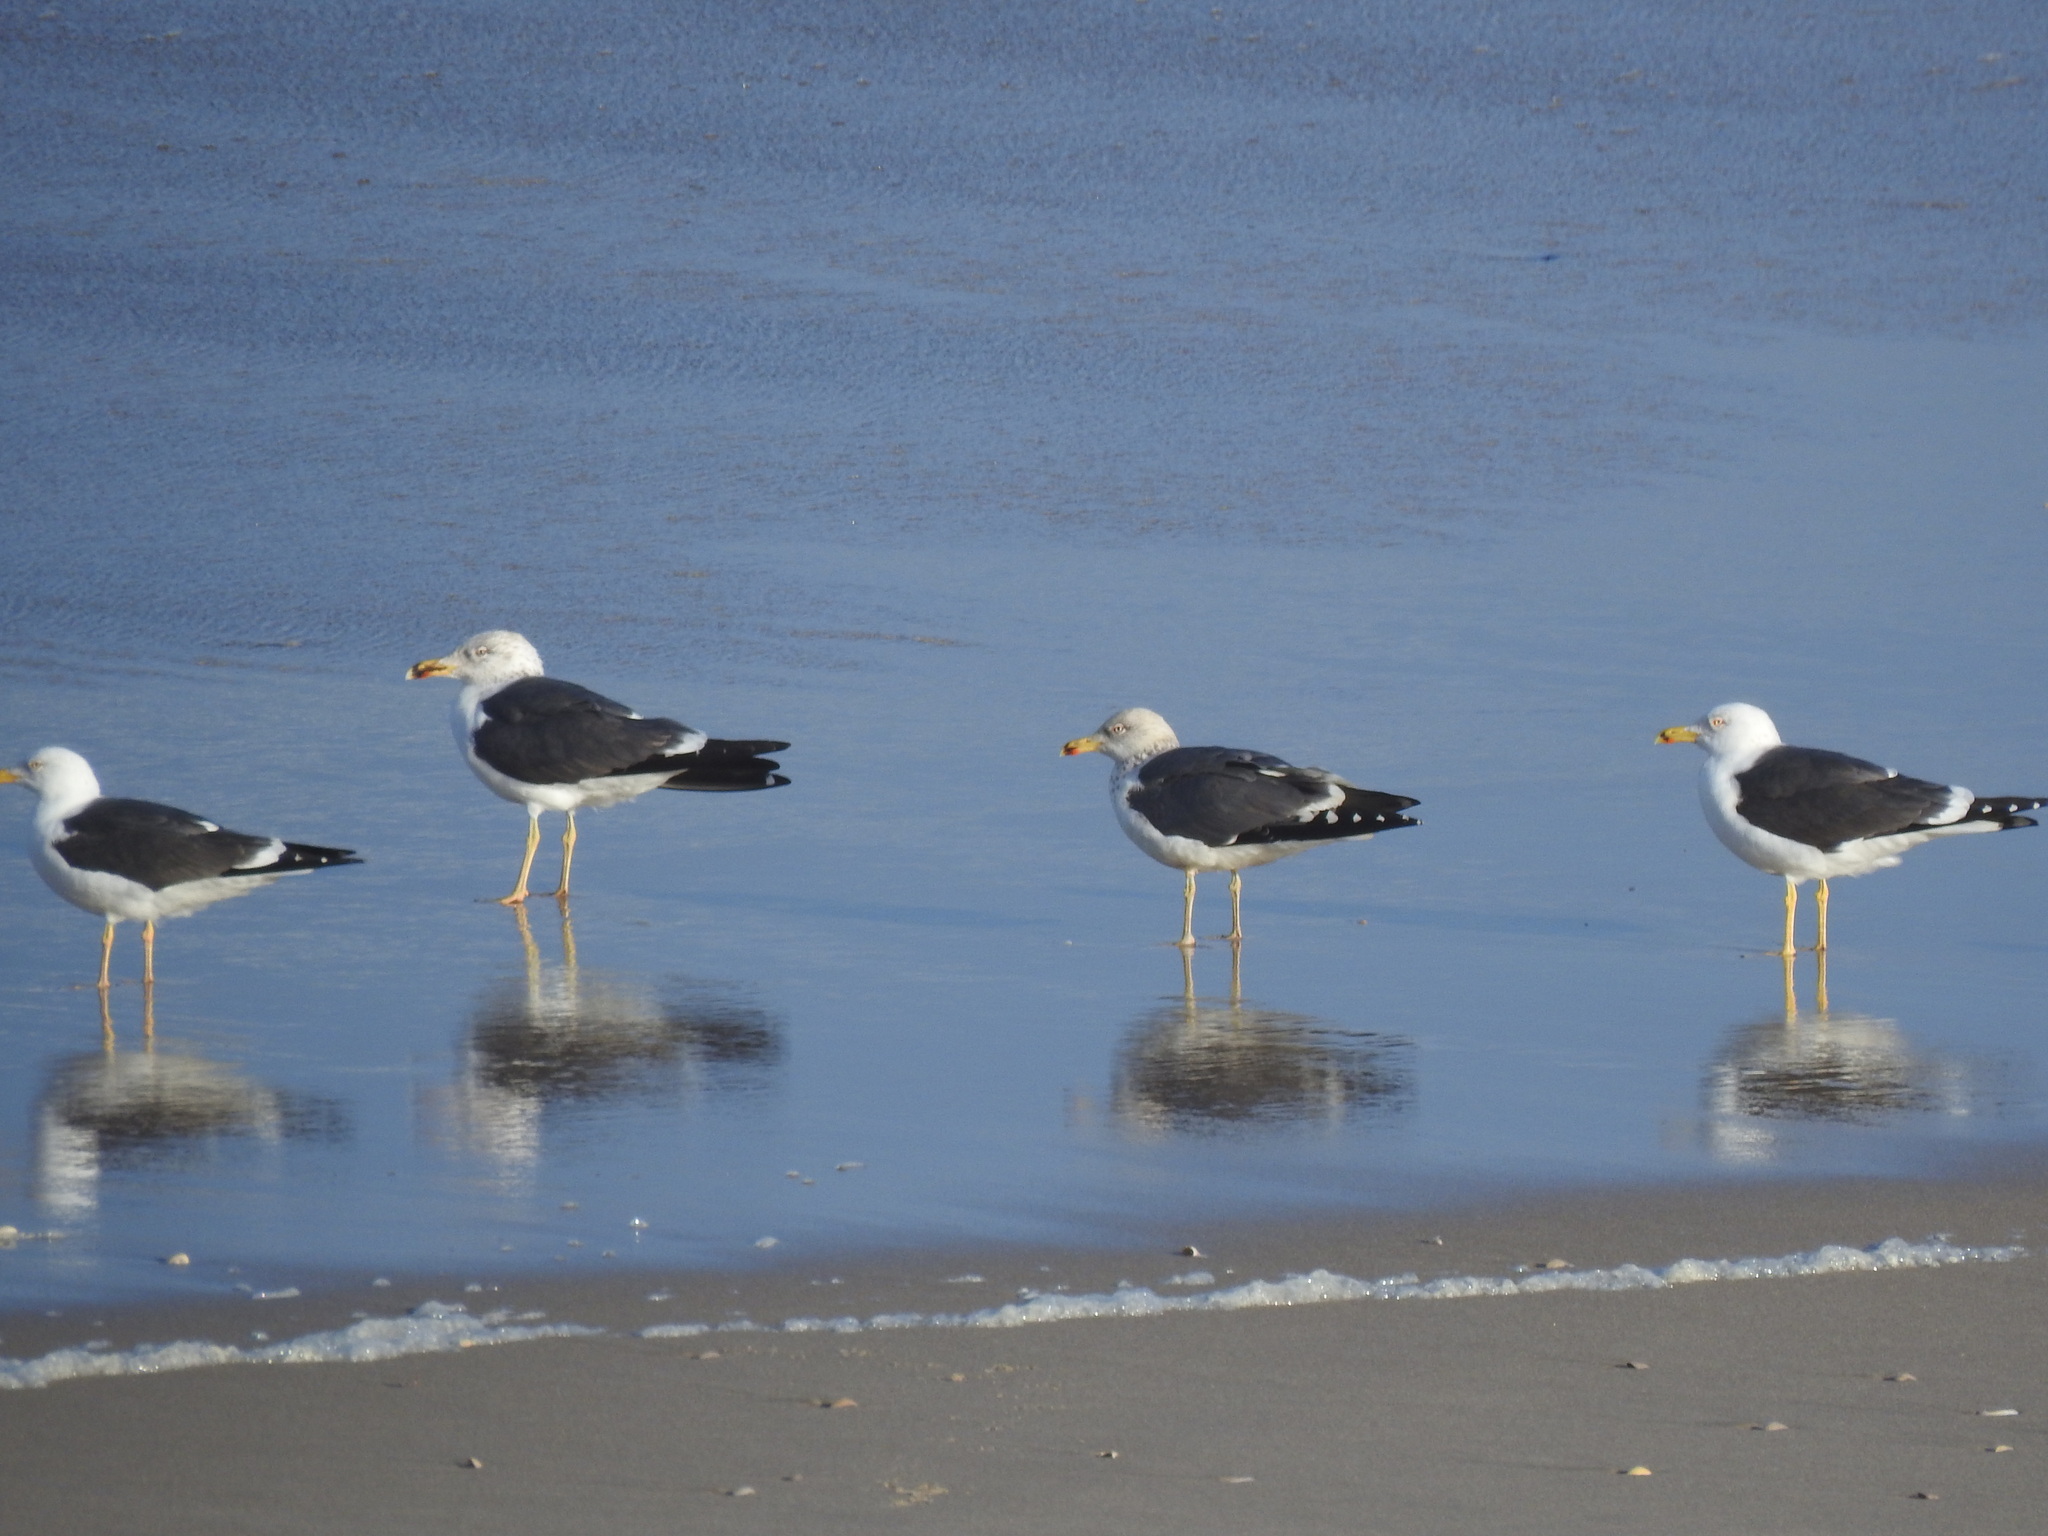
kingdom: Animalia
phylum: Chordata
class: Aves
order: Charadriiformes
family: Laridae
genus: Larus
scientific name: Larus fuscus
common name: Lesser black-backed gull
